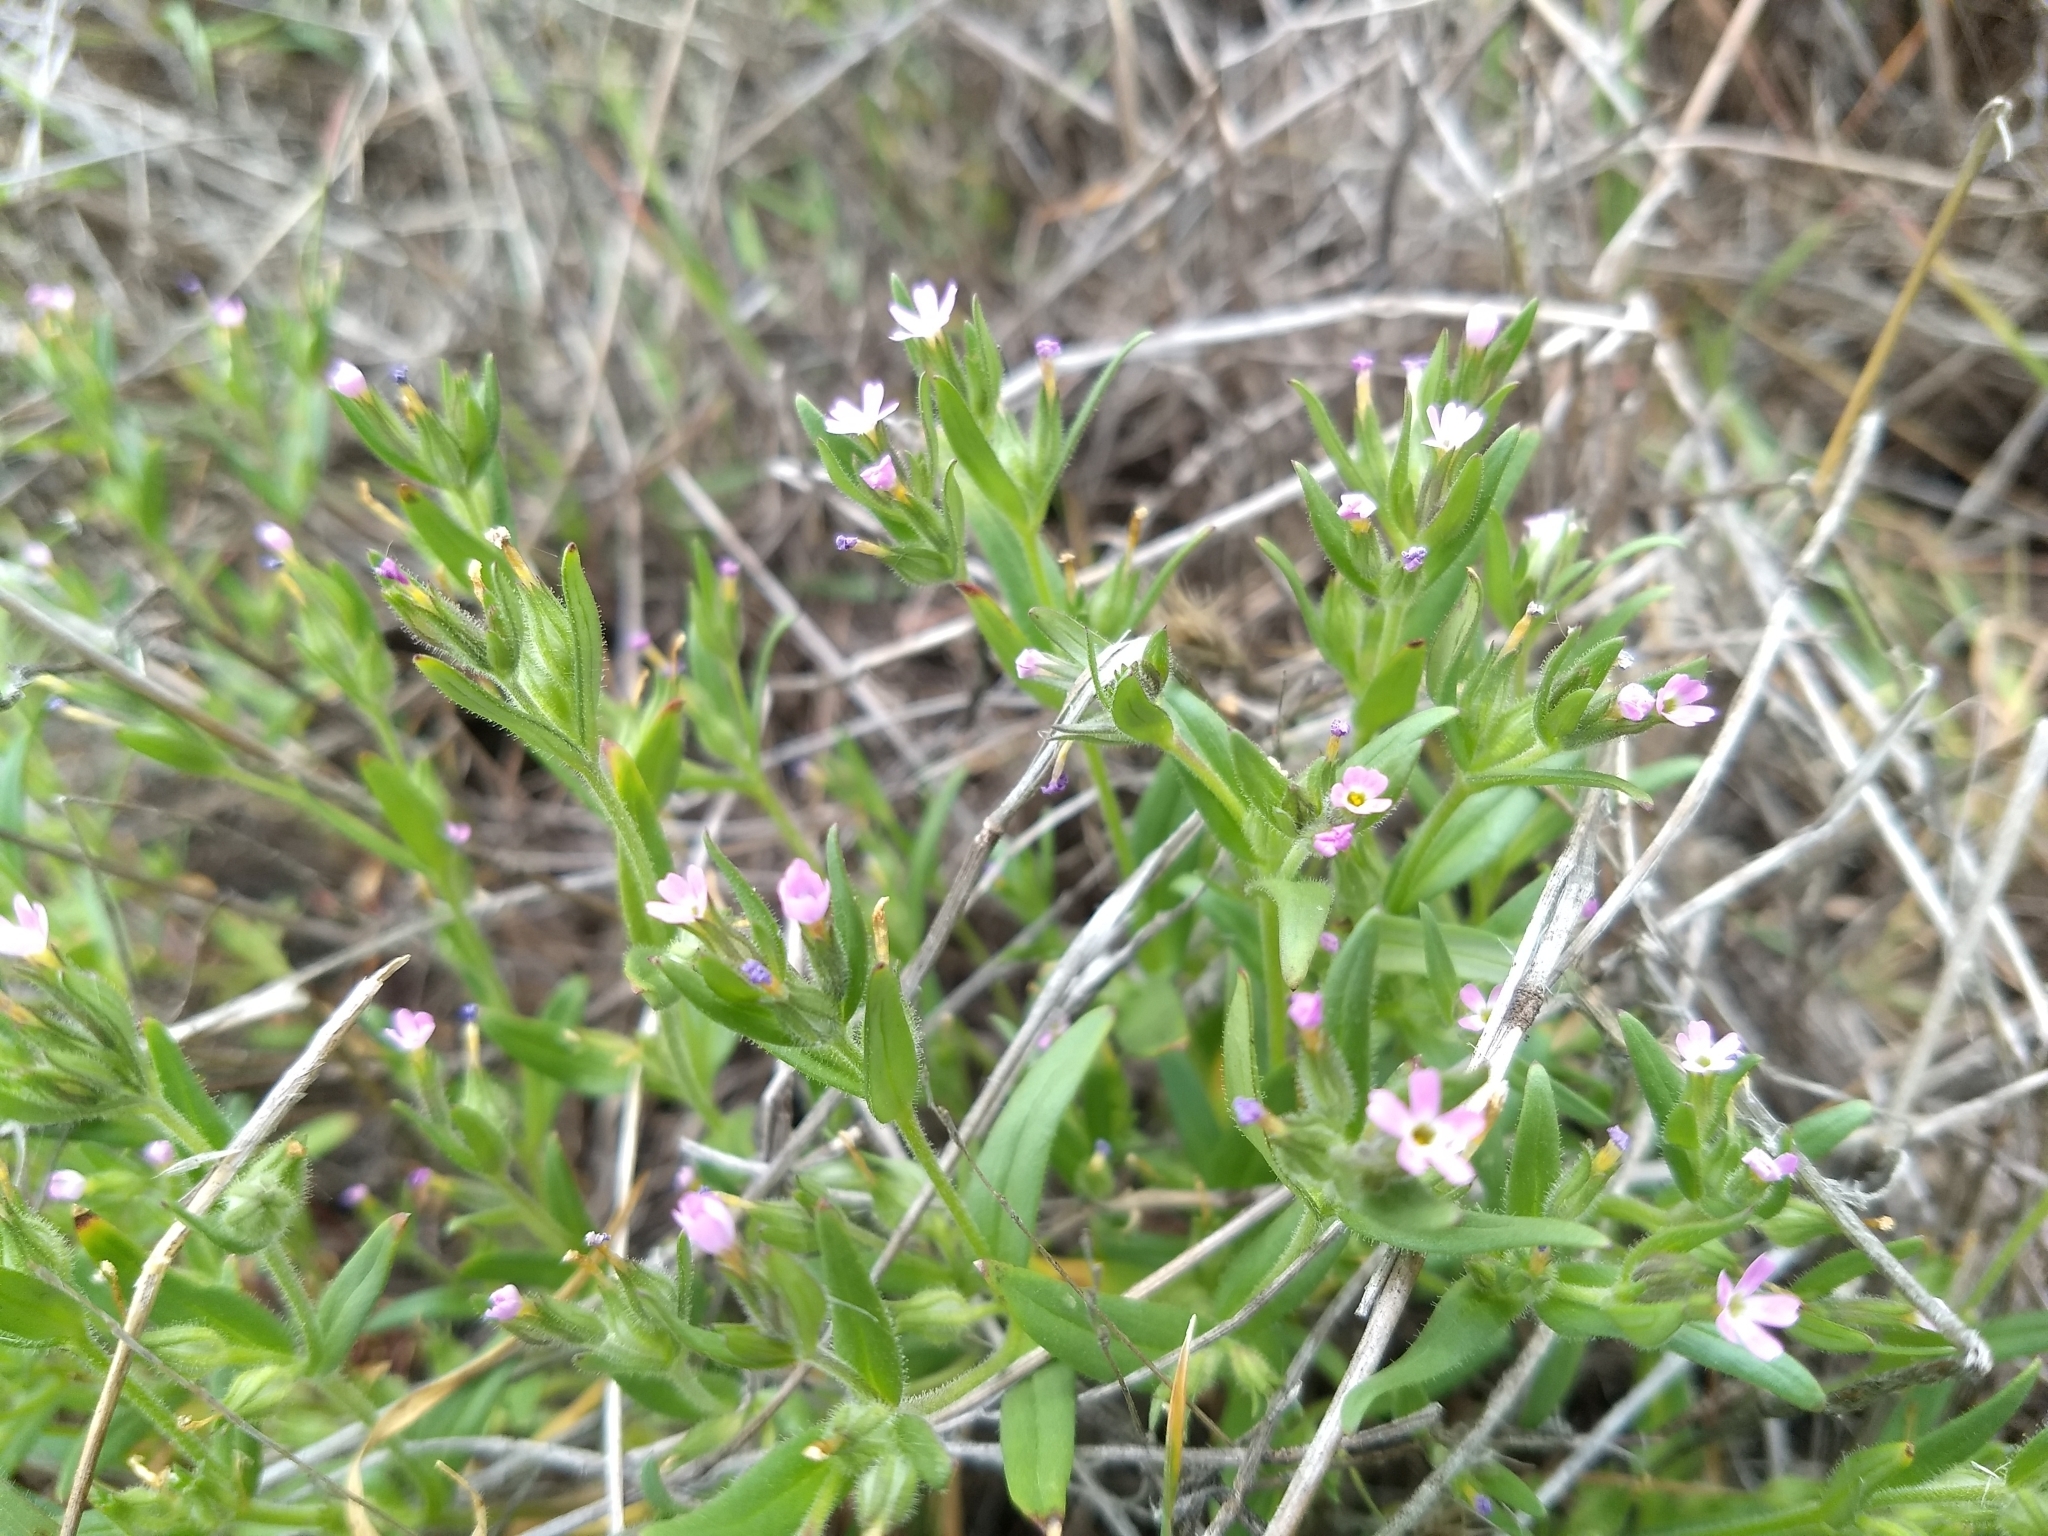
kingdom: Plantae
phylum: Tracheophyta
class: Magnoliopsida
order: Ericales
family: Polemoniaceae
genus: Phlox
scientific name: Phlox gracilis
